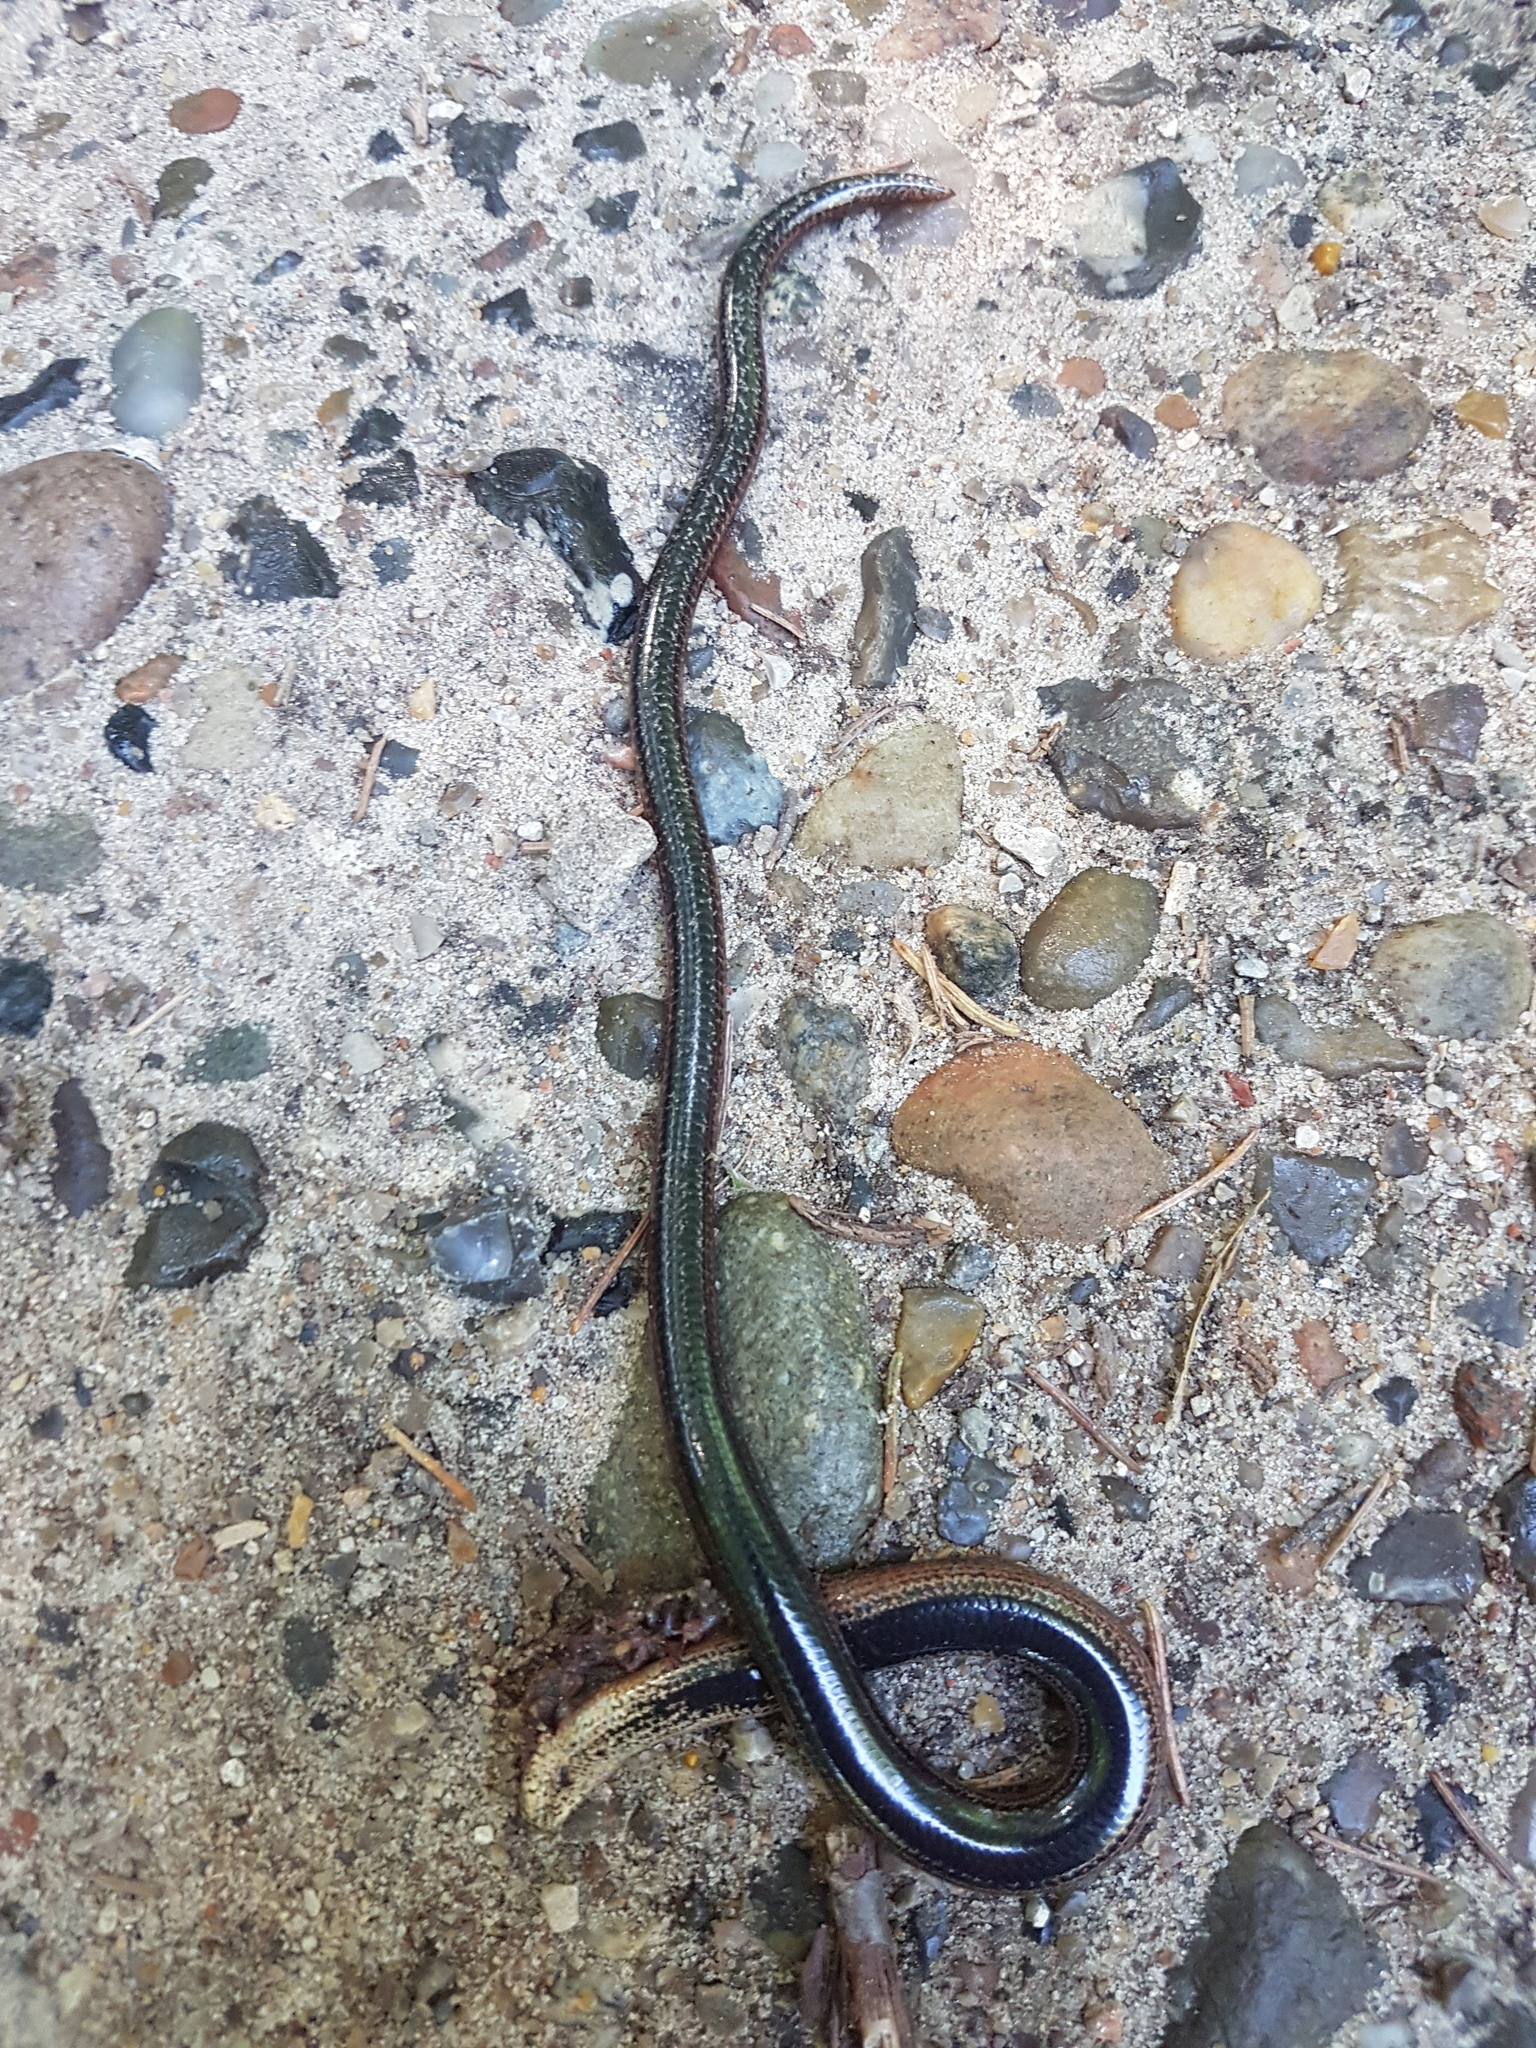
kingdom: Animalia
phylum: Chordata
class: Squamata
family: Anguidae
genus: Anguis
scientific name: Anguis fragilis
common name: Slow worm
